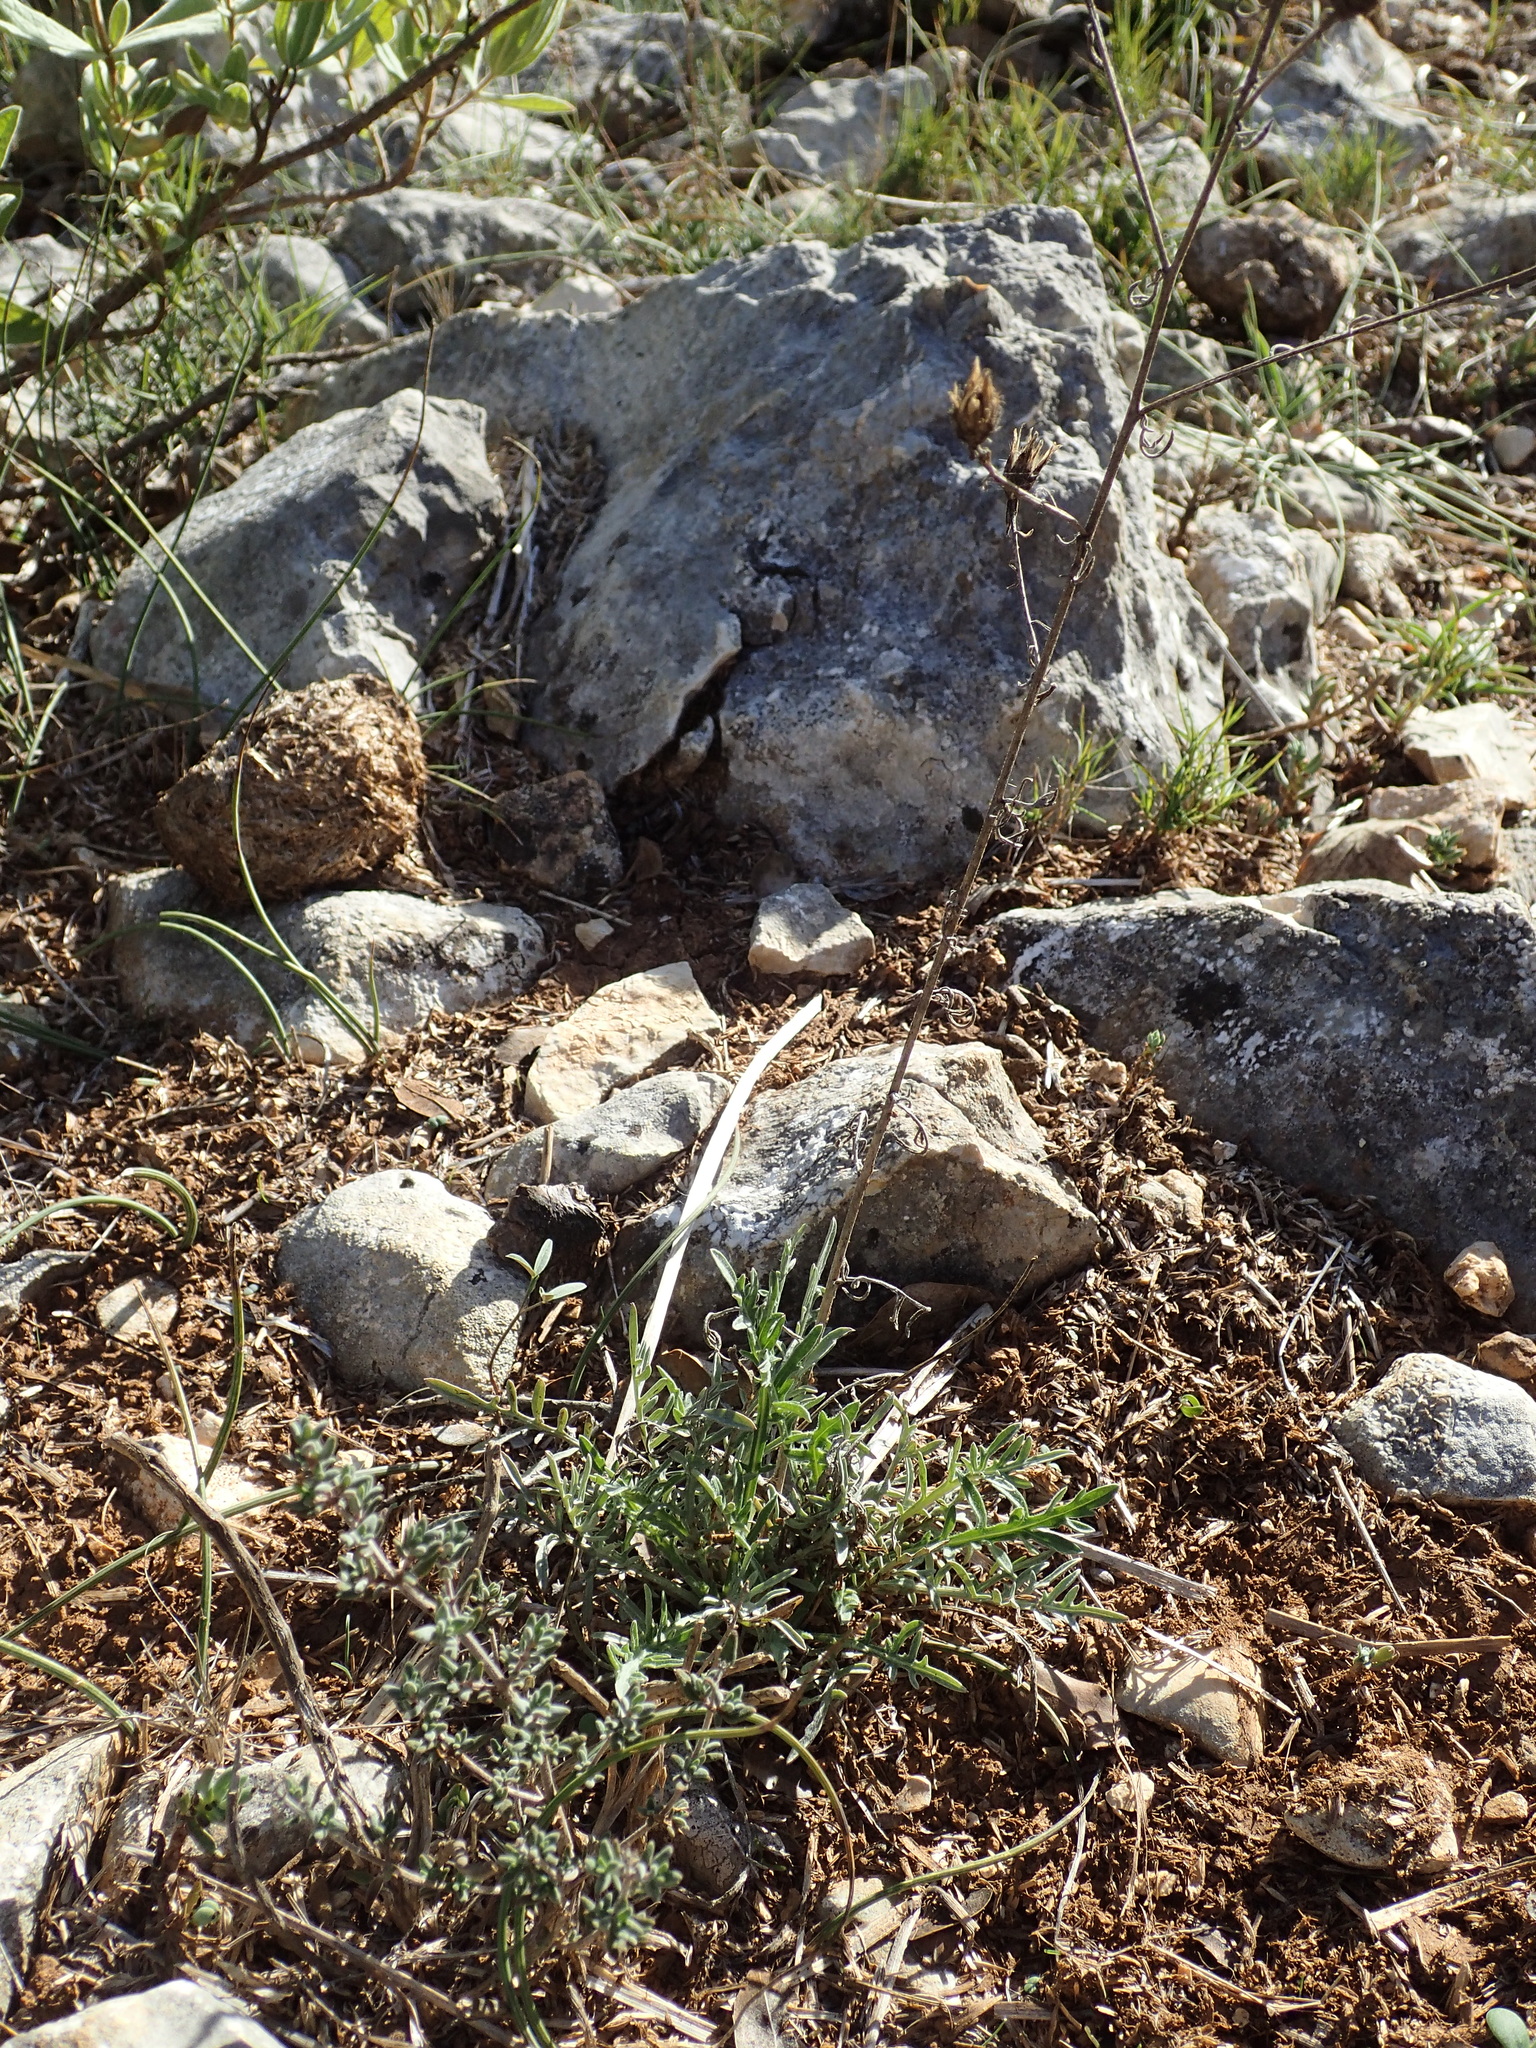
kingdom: Plantae
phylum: Tracheophyta
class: Magnoliopsida
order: Asterales
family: Asteraceae
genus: Centaurea
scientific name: Centaurea paniculata
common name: Jersey knapweed
